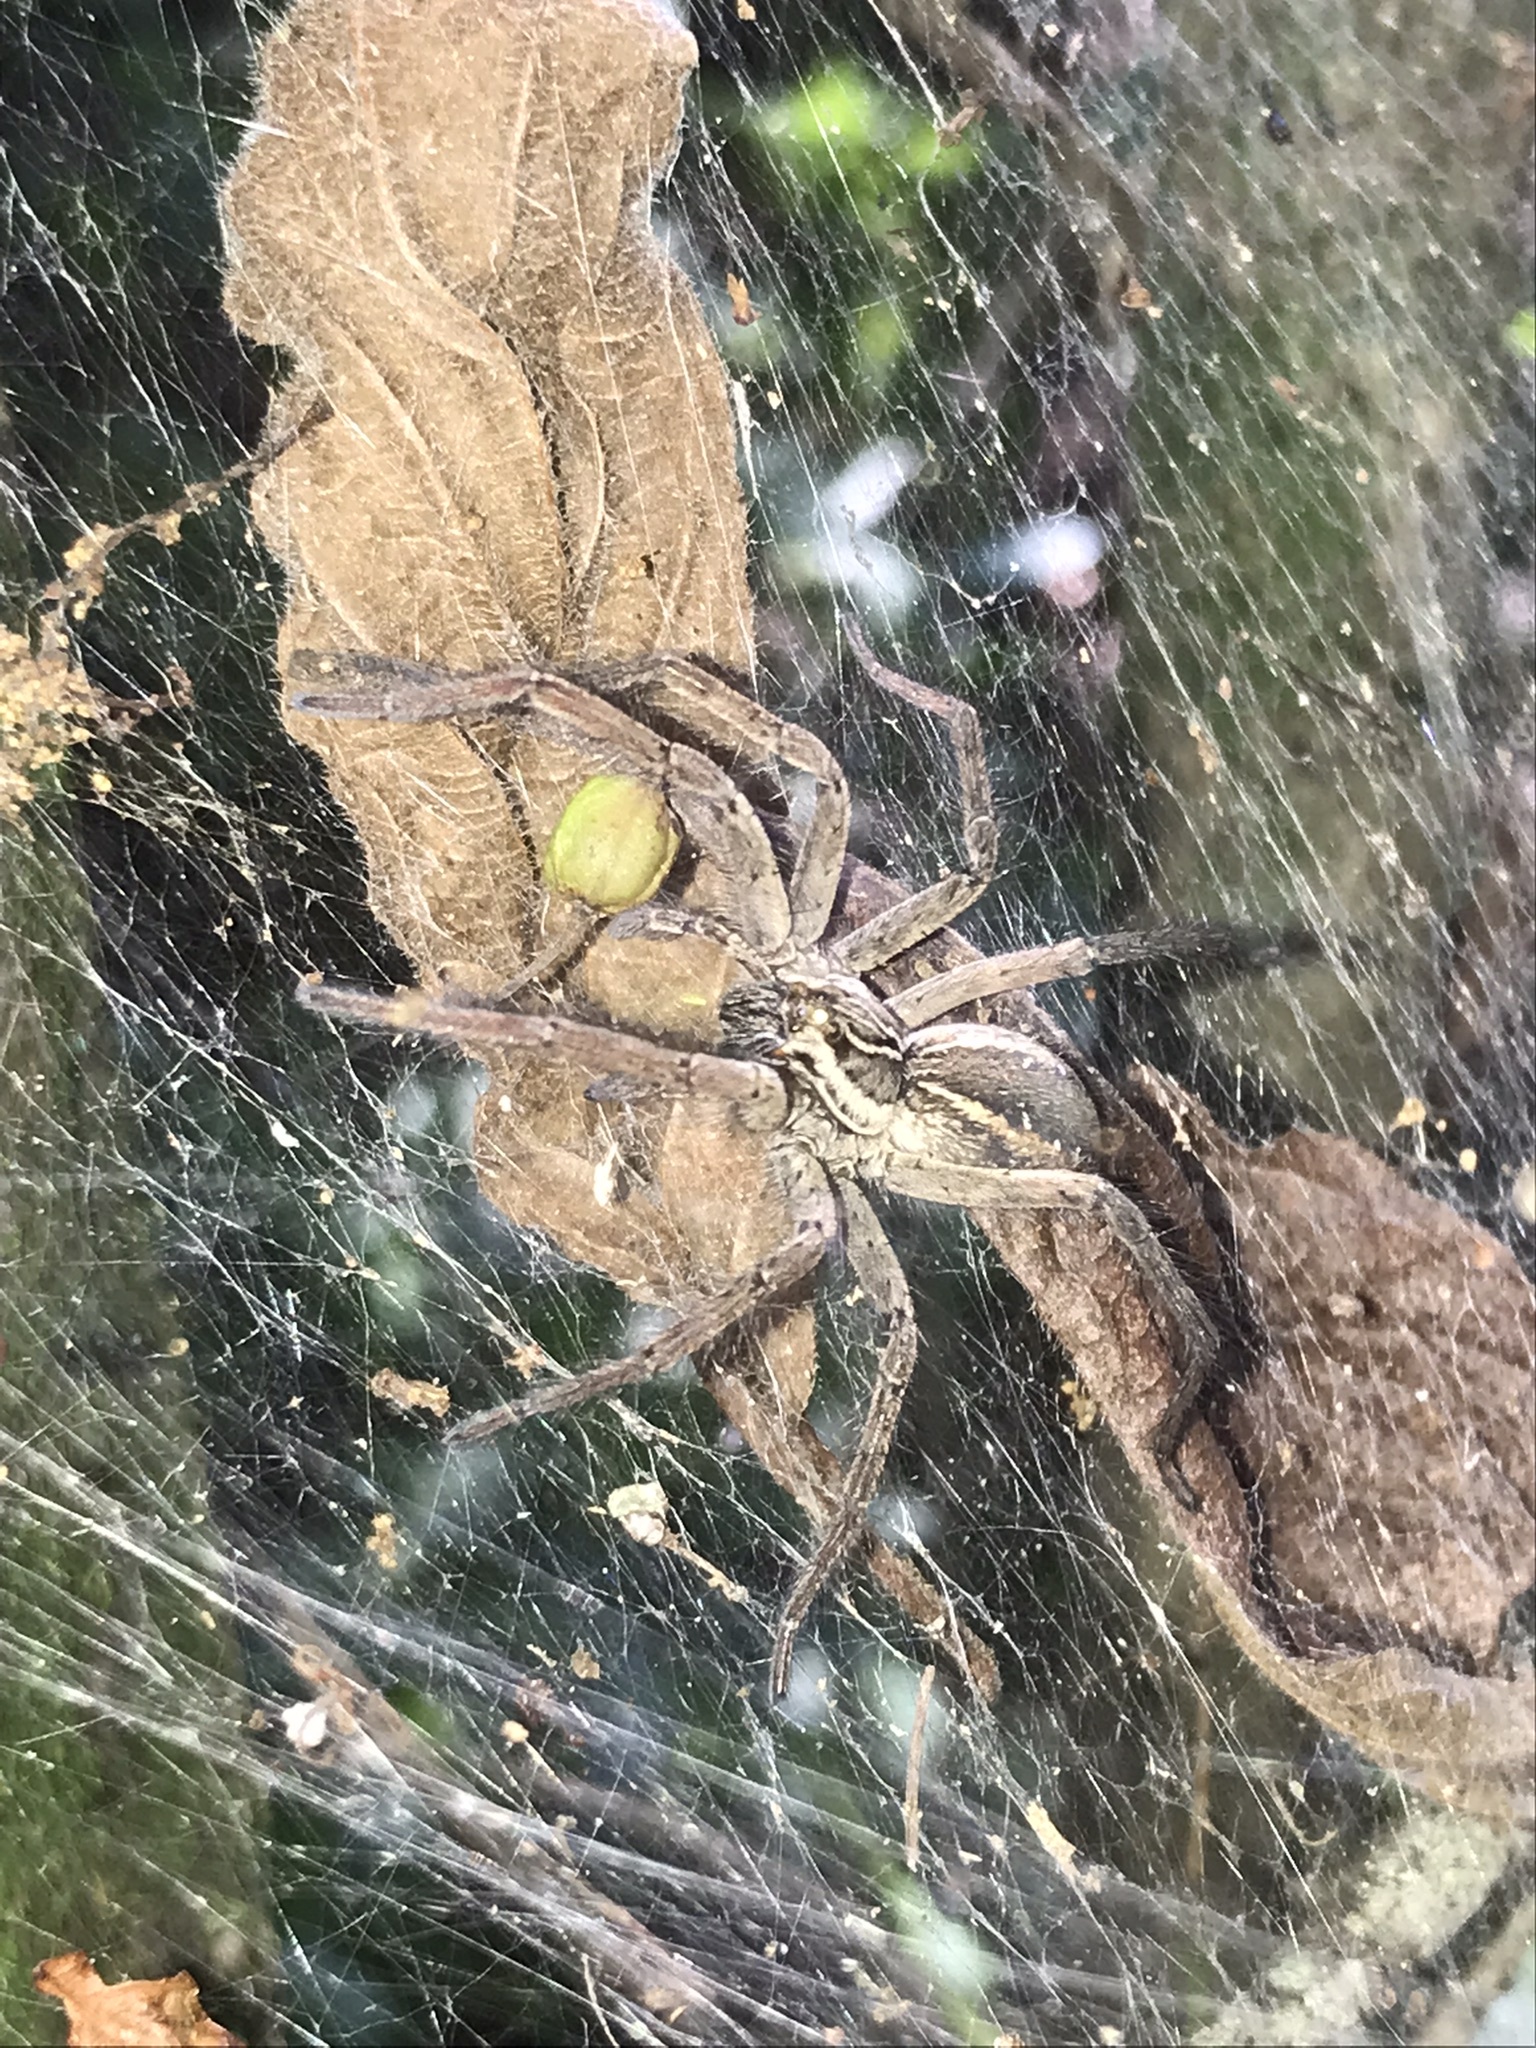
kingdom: Animalia
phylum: Arthropoda
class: Arachnida
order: Araneae
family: Lycosidae
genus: Aglaoctenus
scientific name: Aglaoctenus lagotis
